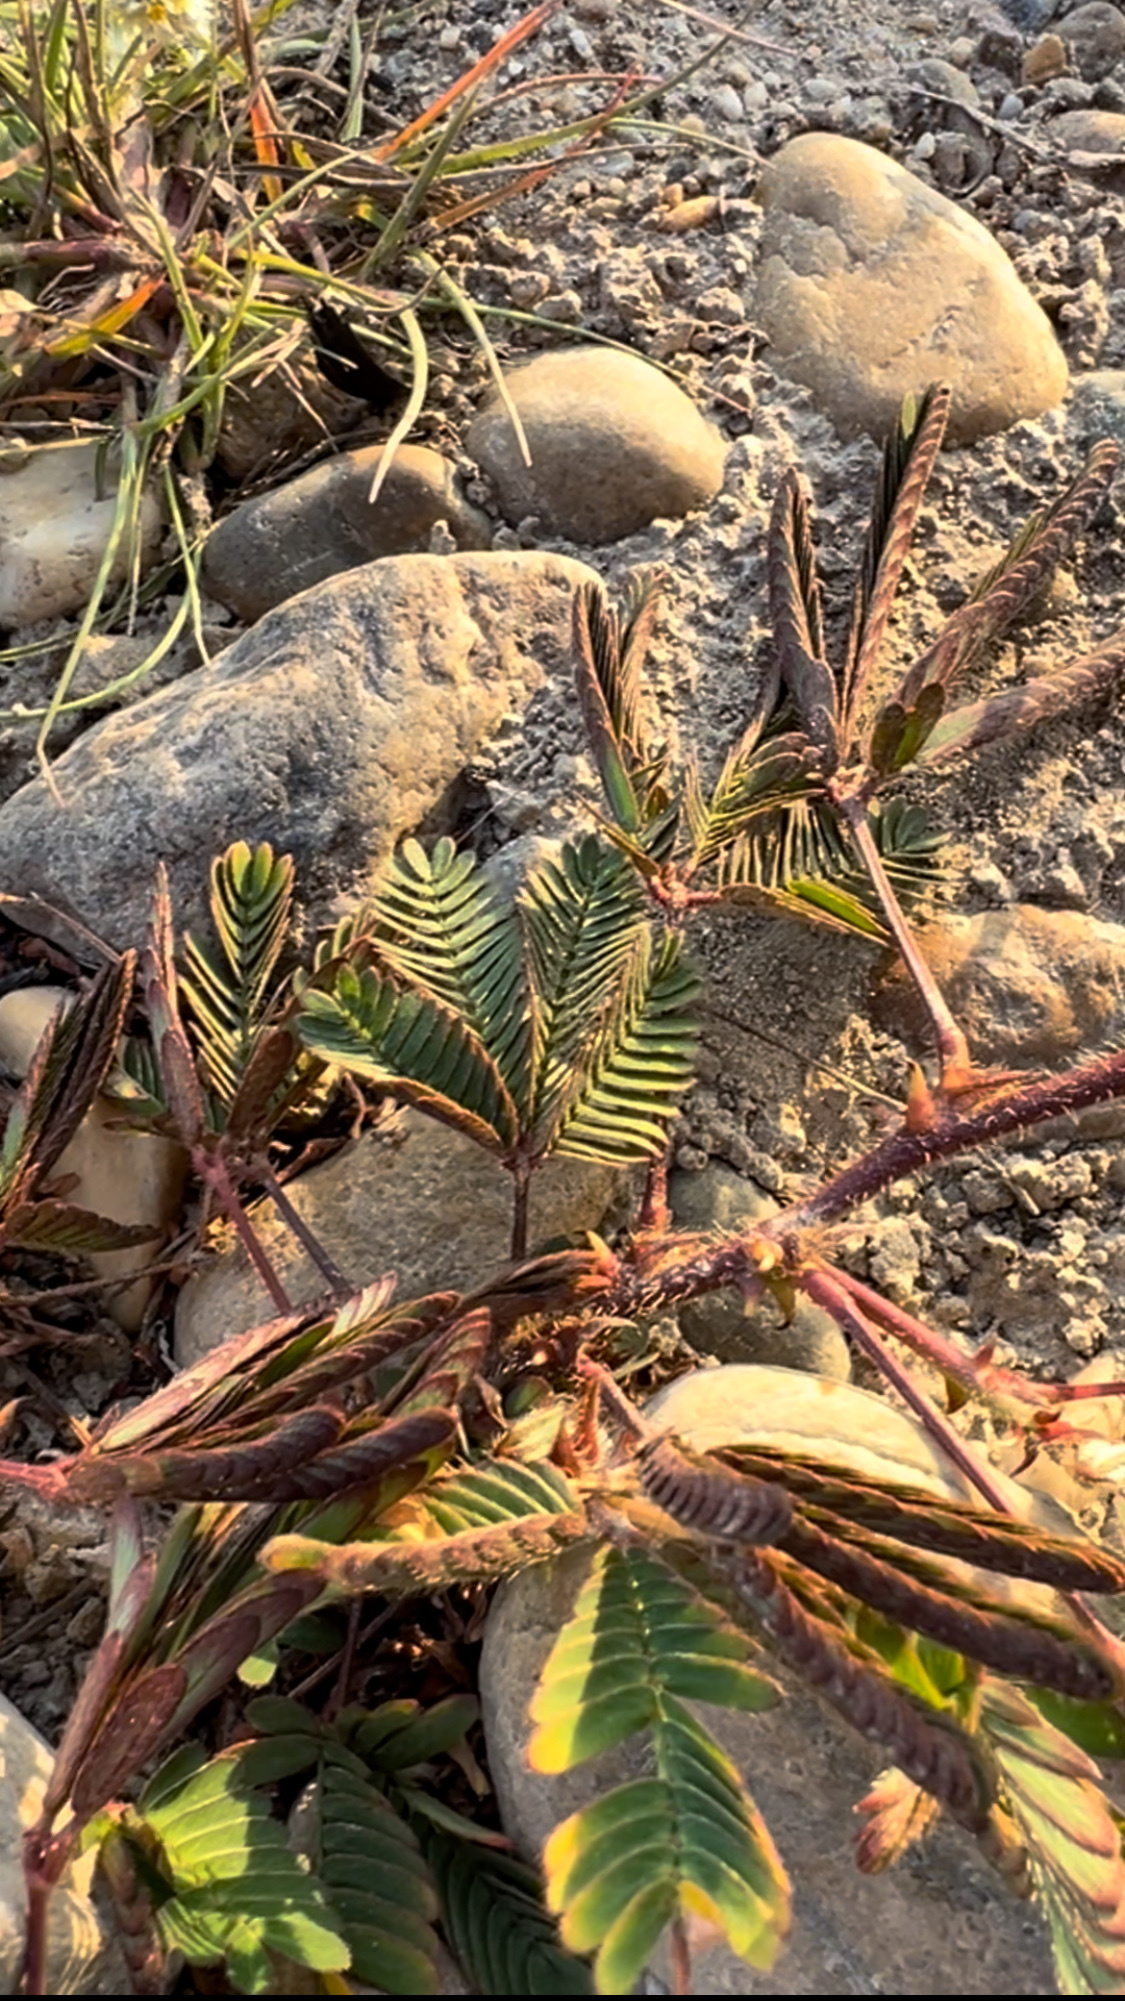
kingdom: Plantae
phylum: Tracheophyta
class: Magnoliopsida
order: Fabales
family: Fabaceae
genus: Mimosa
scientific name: Mimosa pudica
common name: Sensitive plant
